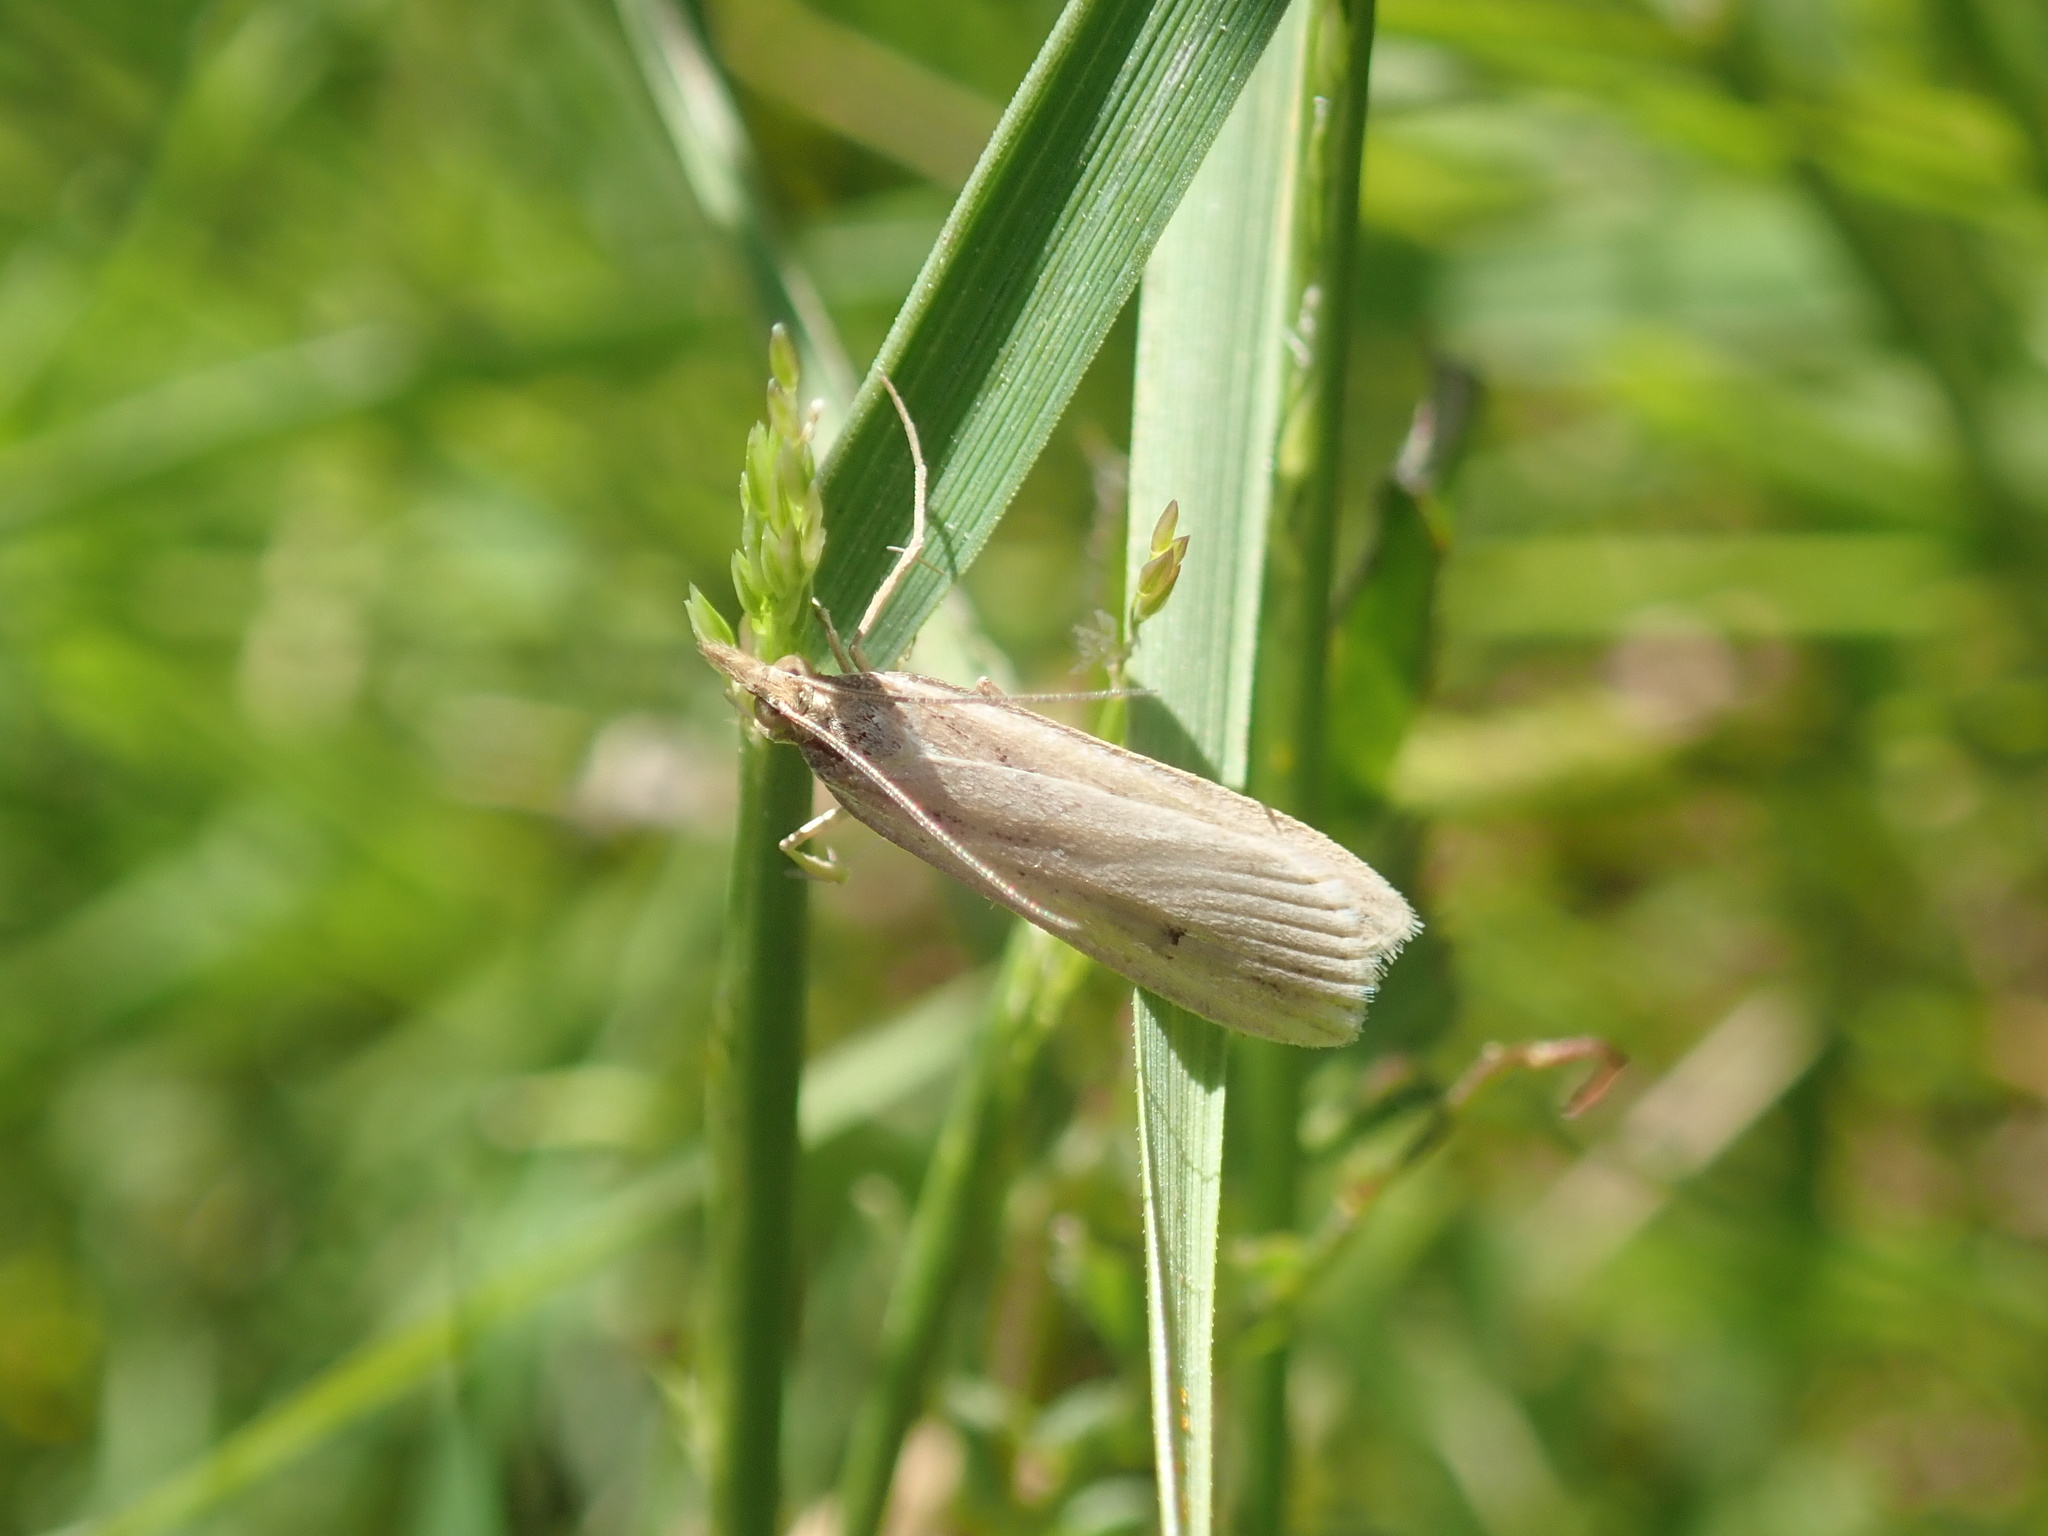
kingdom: Animalia
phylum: Arthropoda
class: Insecta
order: Lepidoptera
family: Crambidae
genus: Eudonia
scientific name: Eudonia sabulosella
